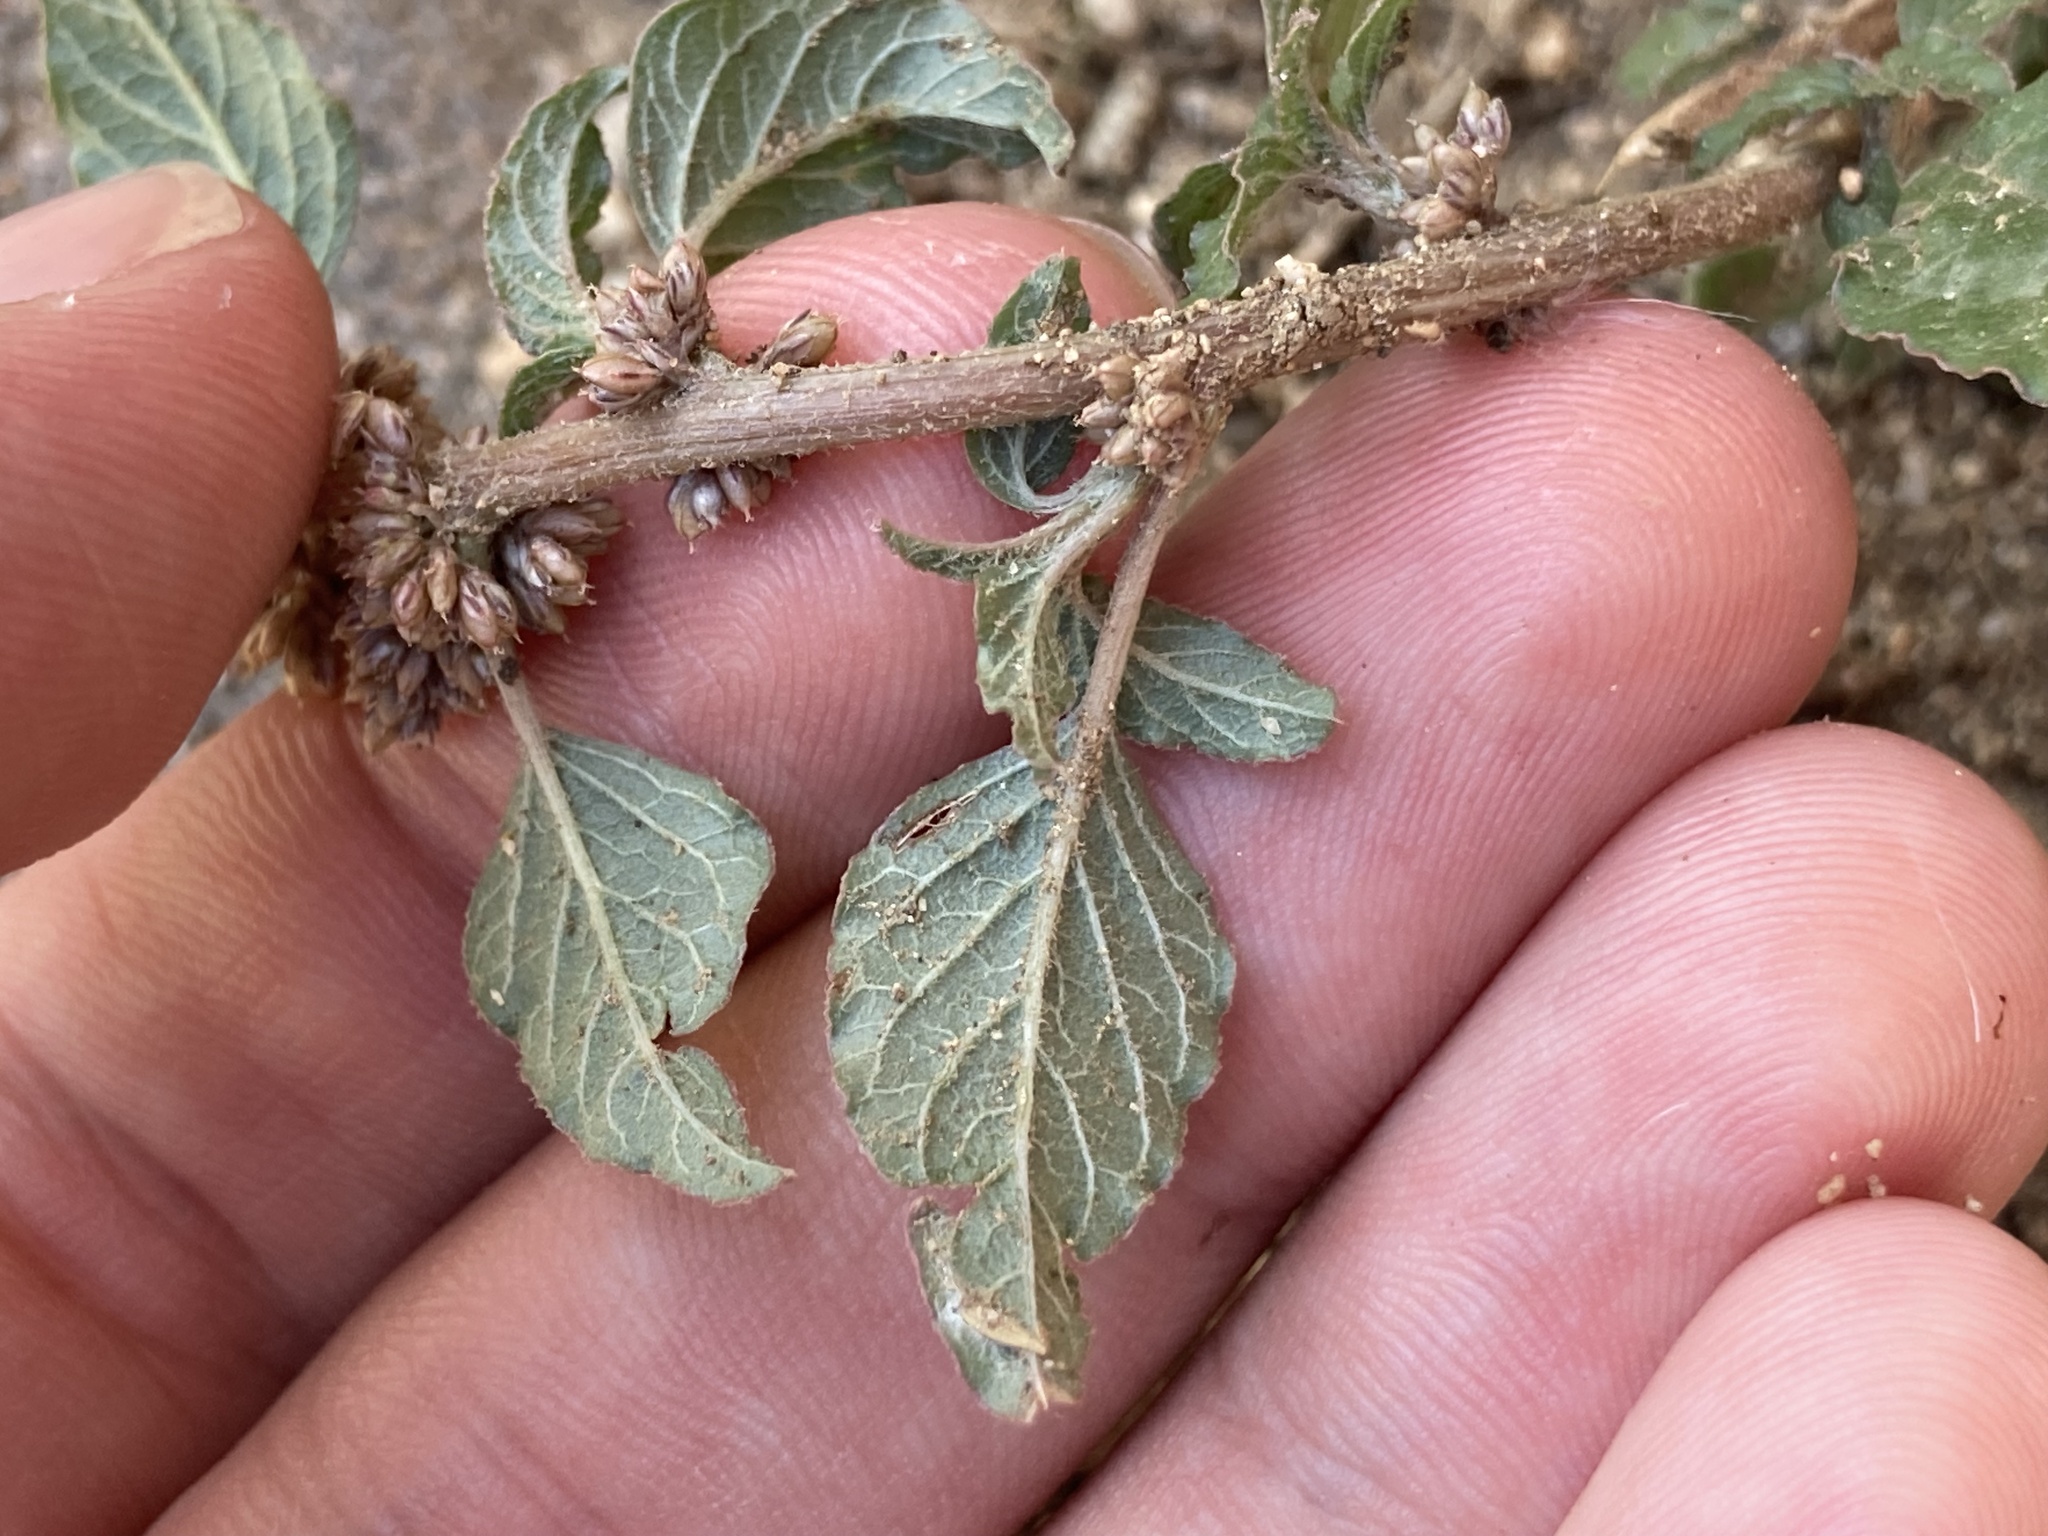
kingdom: Plantae
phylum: Tracheophyta
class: Magnoliopsida
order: Caryophyllales
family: Amaranthaceae
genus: Amaranthus
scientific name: Amaranthus deflexus
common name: Perennial pigweed
